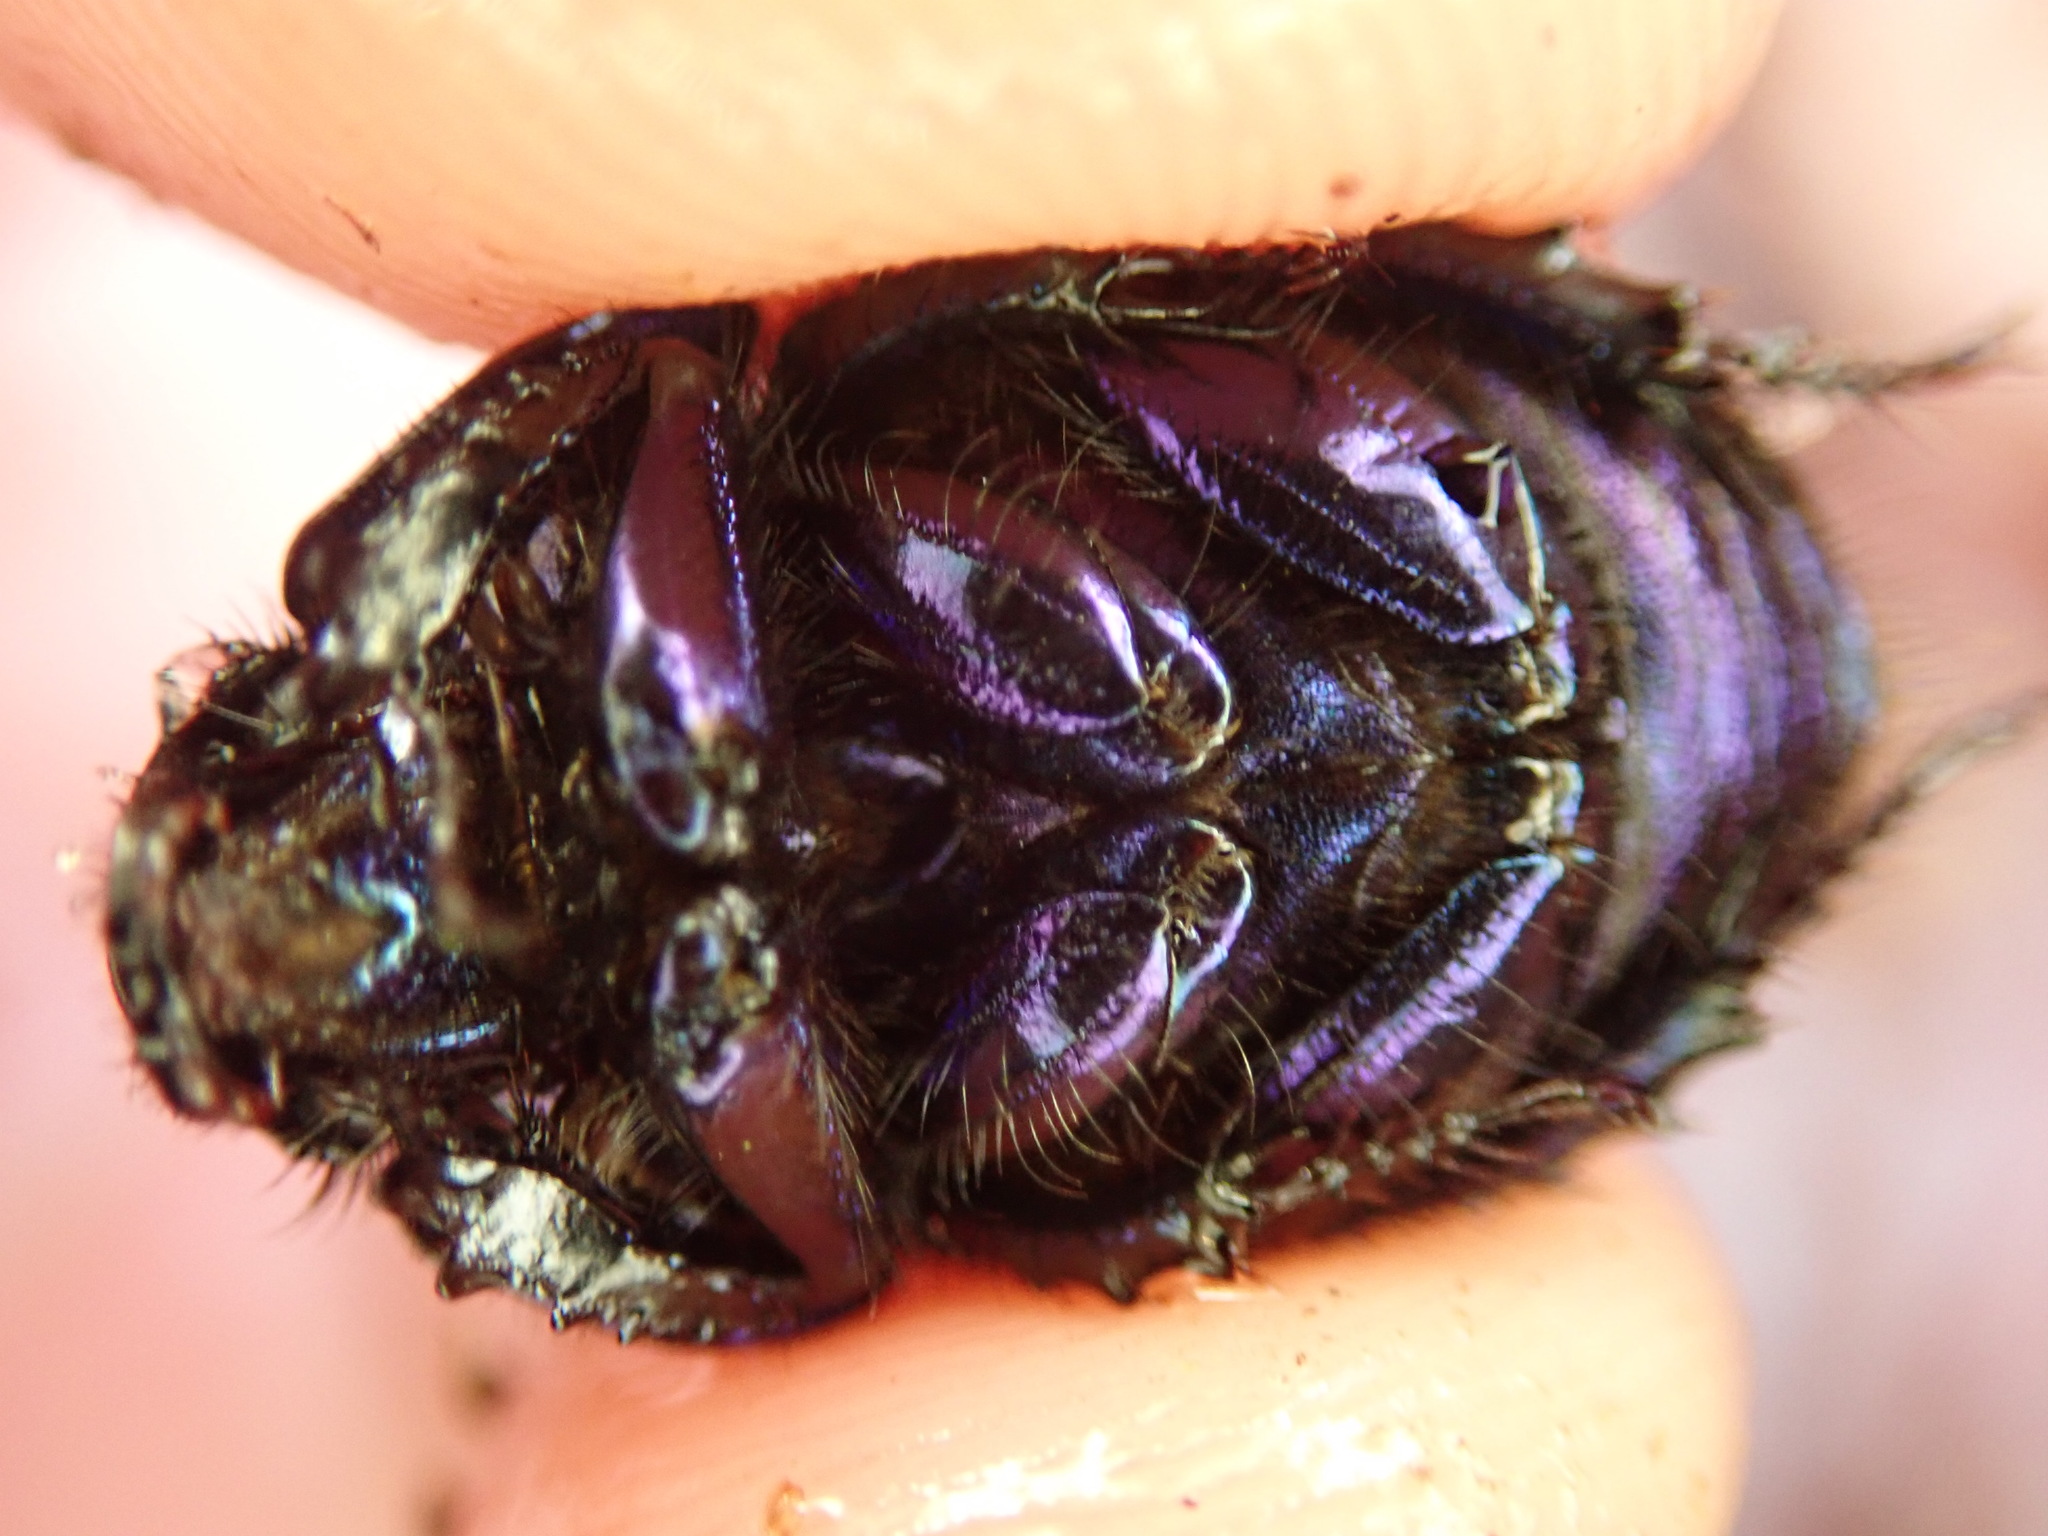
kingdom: Animalia
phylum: Arthropoda
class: Insecta
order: Coleoptera
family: Geotrupidae
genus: Anoplotrupes
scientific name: Anoplotrupes stercorosus
